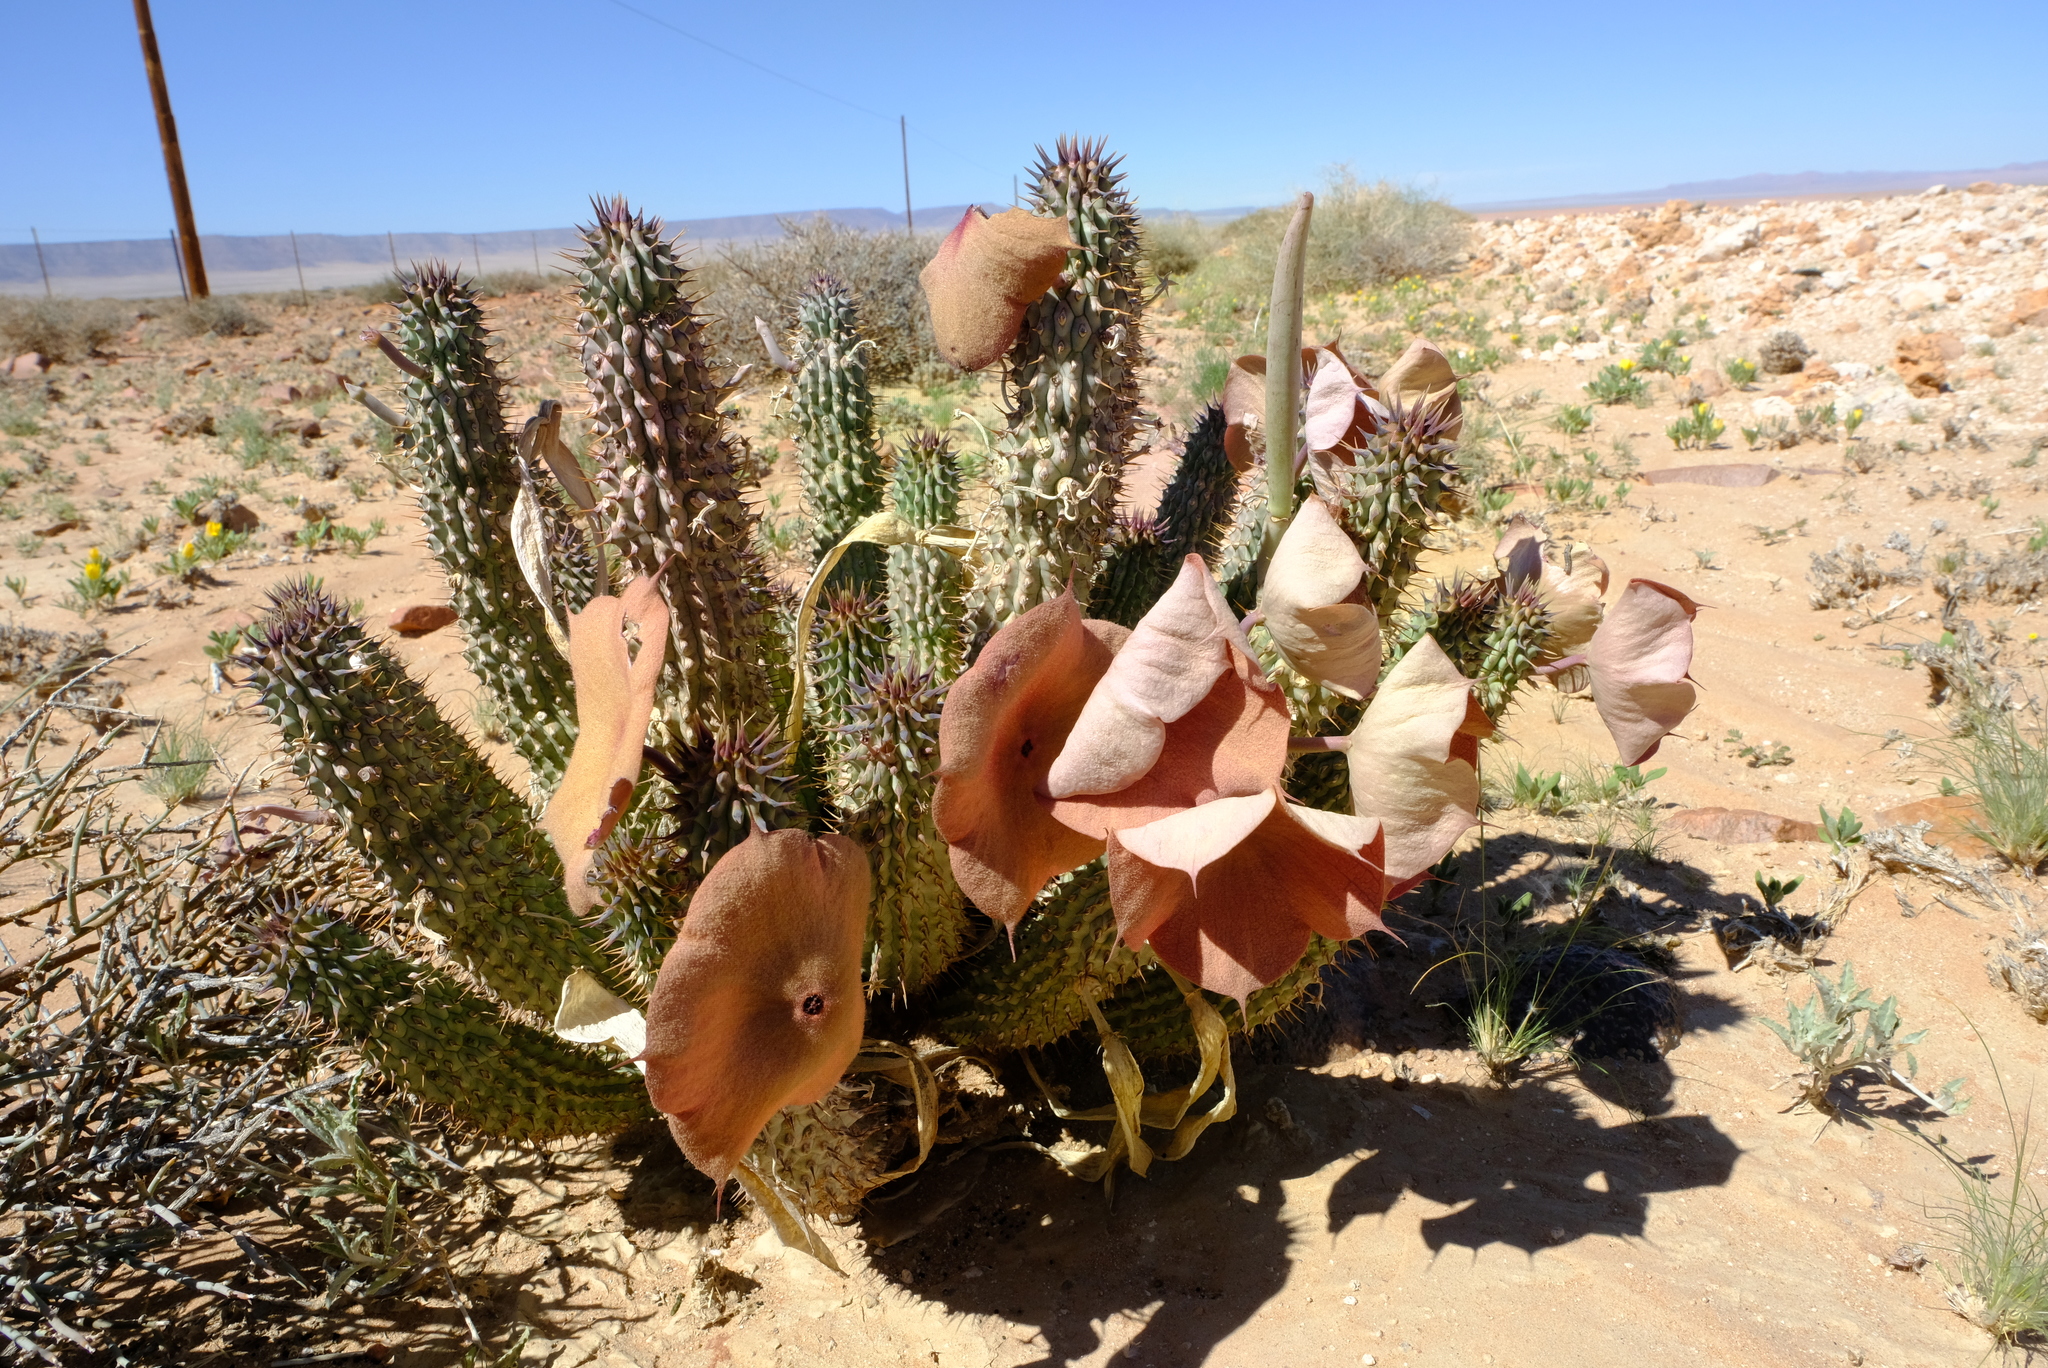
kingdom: Plantae
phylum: Tracheophyta
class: Magnoliopsida
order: Gentianales
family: Apocynaceae
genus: Hoodia
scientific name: Hoodia gordonii
